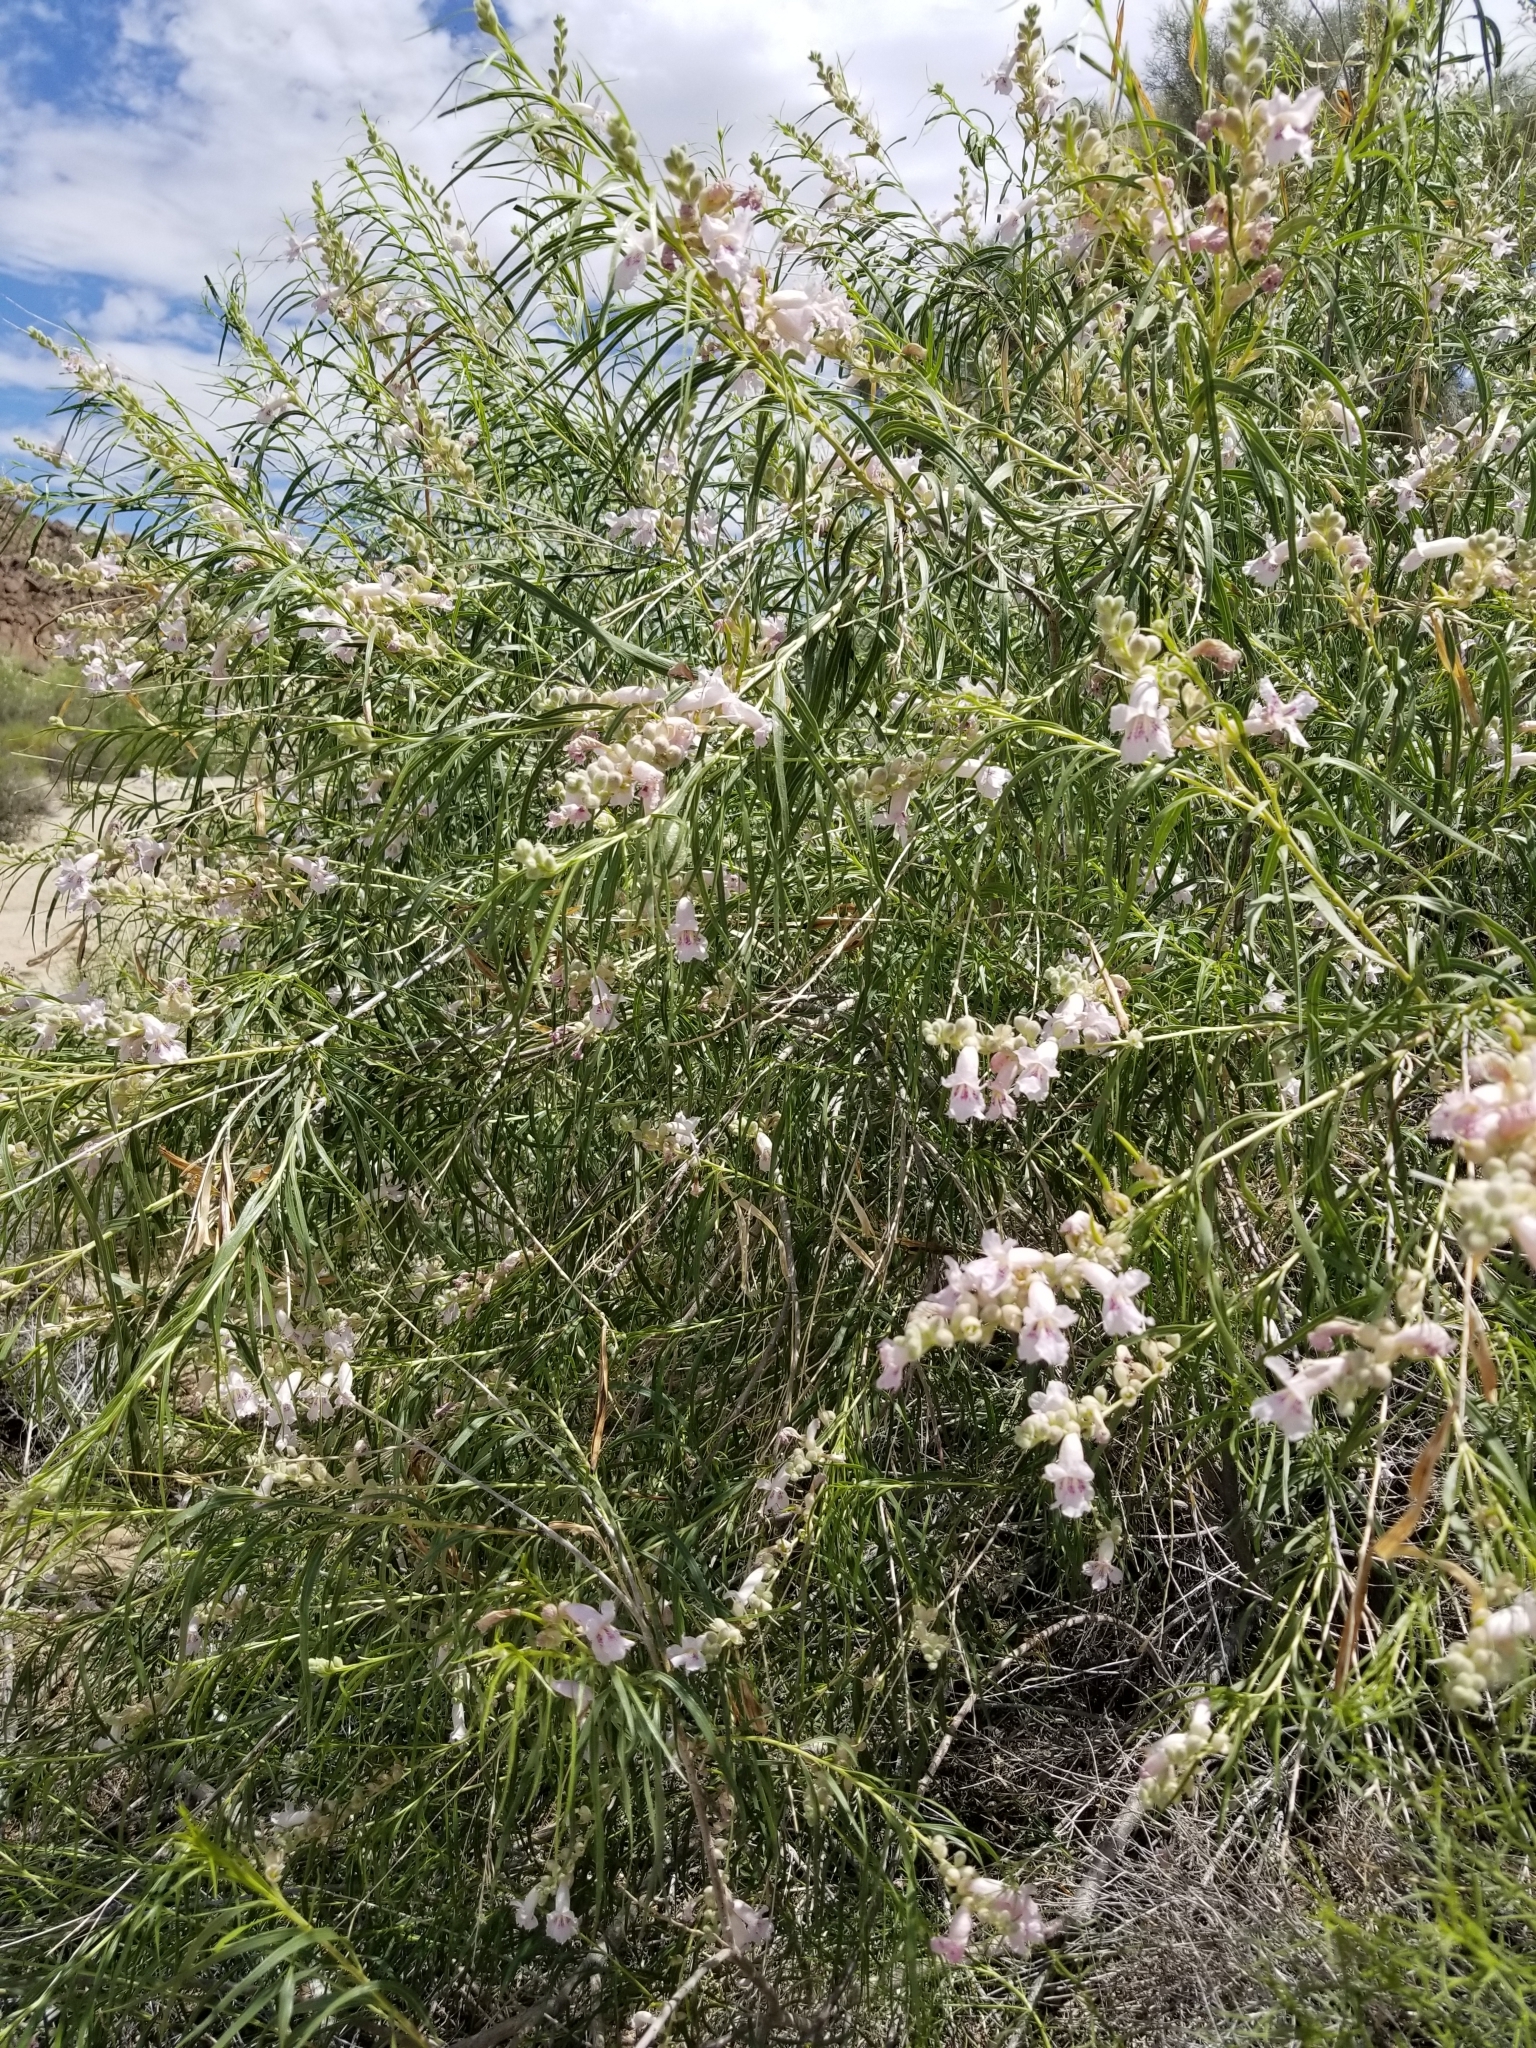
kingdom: Plantae
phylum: Tracheophyta
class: Magnoliopsida
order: Lamiales
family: Bignoniaceae
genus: Chilopsis
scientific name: Chilopsis linearis
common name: Desert-willow
